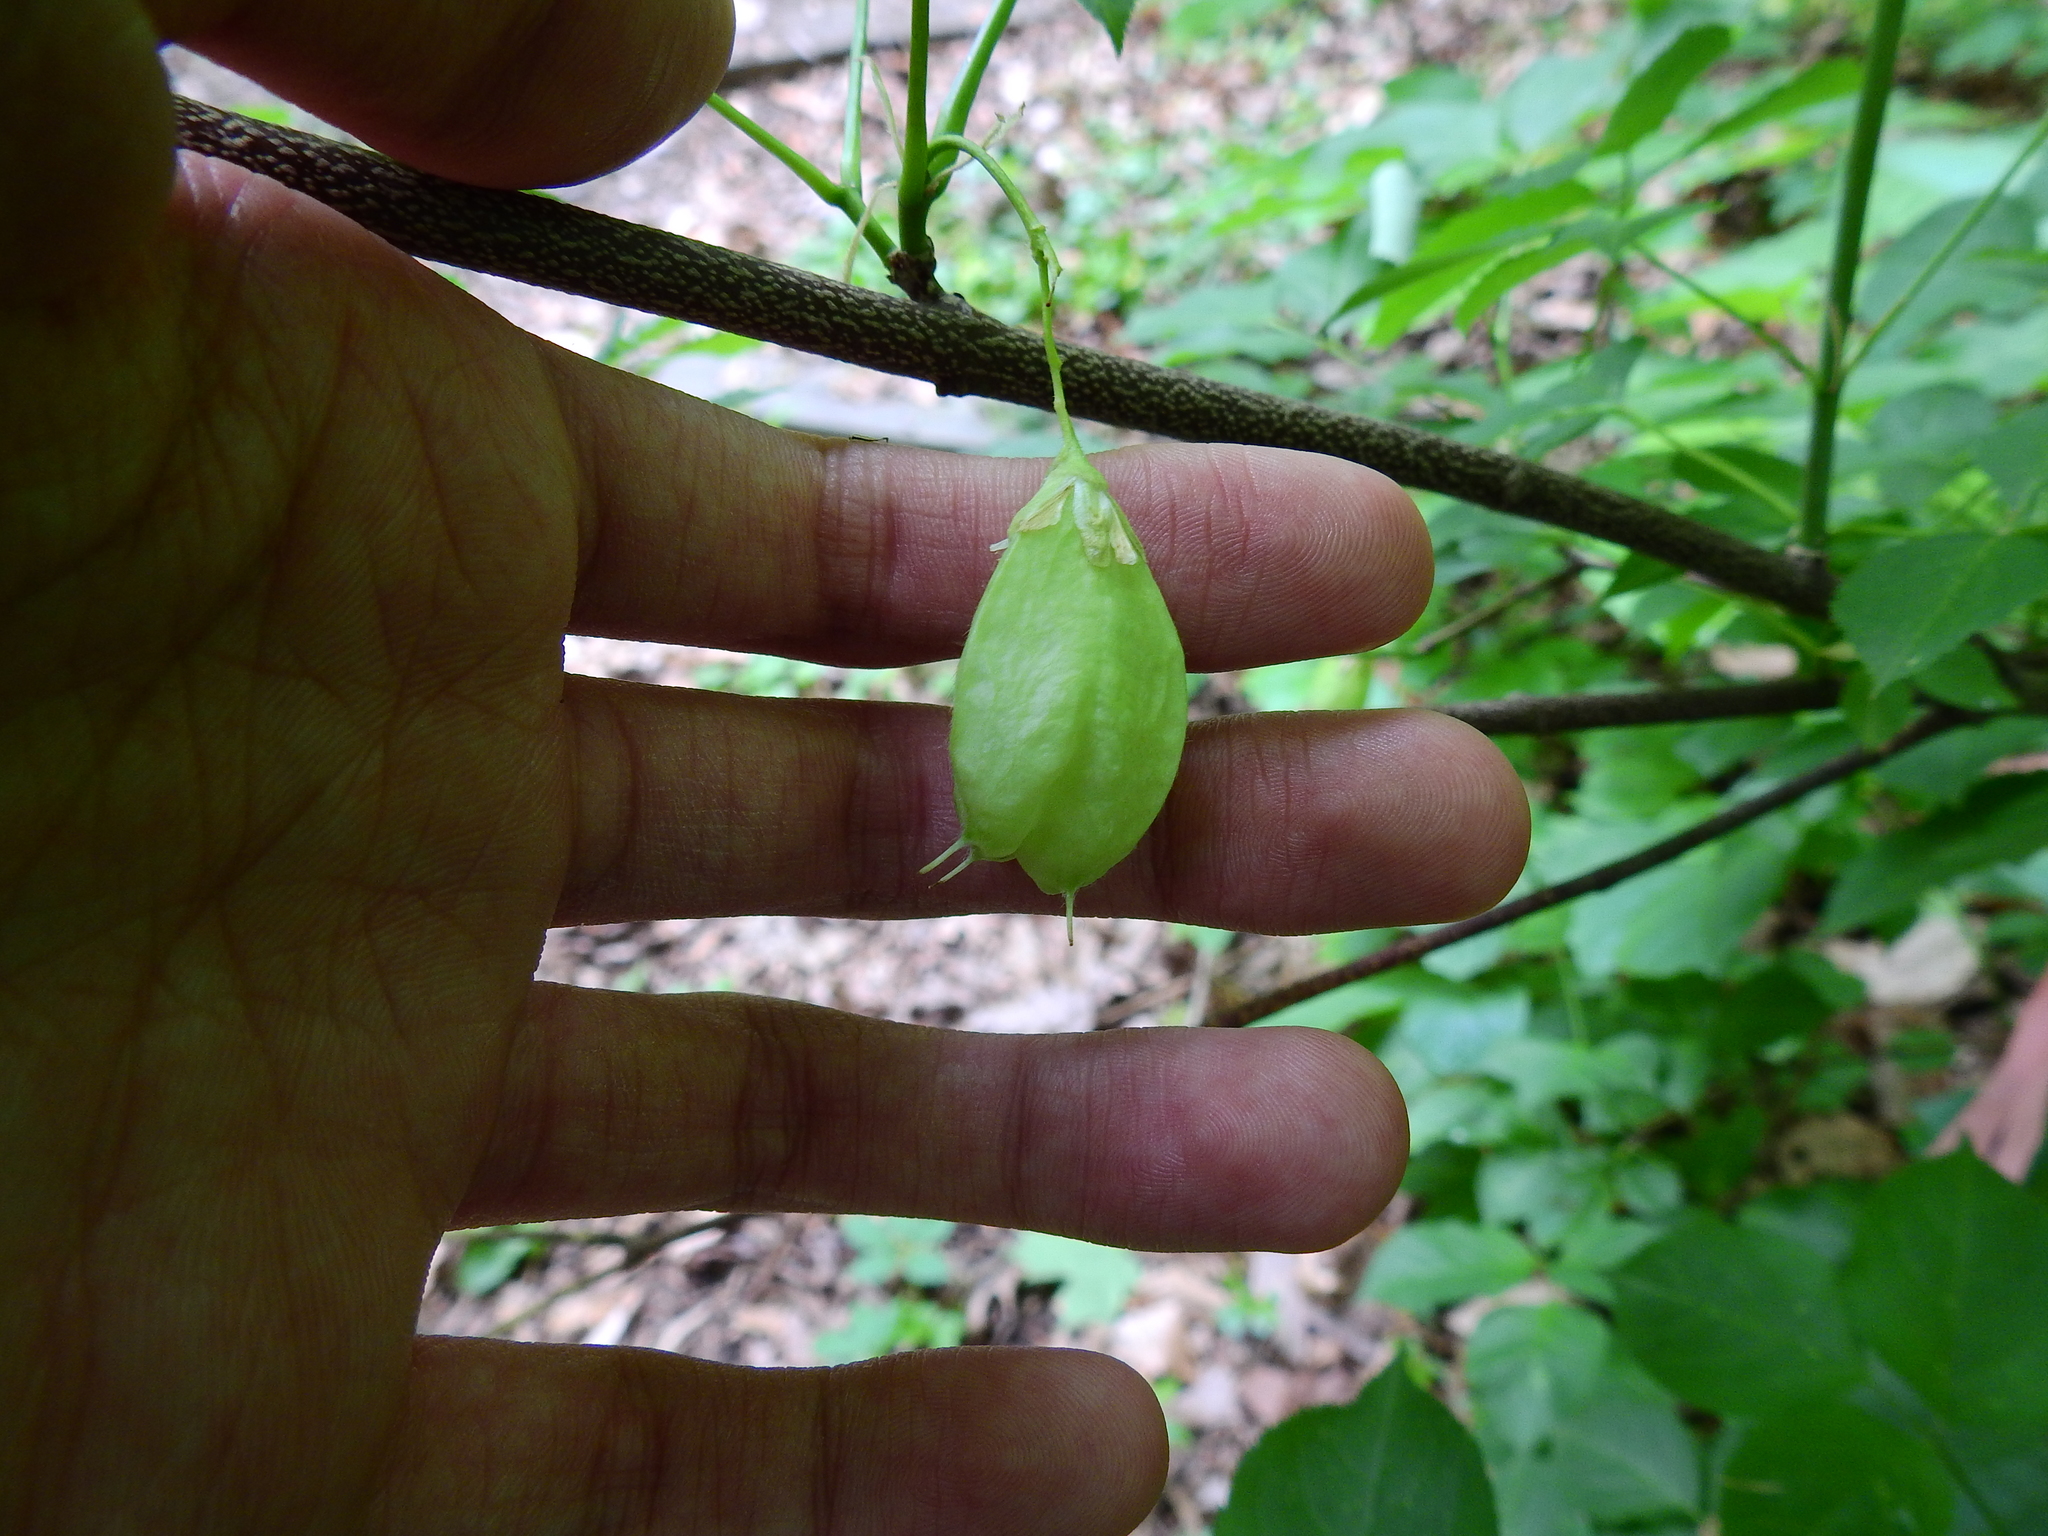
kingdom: Plantae
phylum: Tracheophyta
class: Magnoliopsida
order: Crossosomatales
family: Staphyleaceae
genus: Staphylea
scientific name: Staphylea trifolia
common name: American bladdernut
